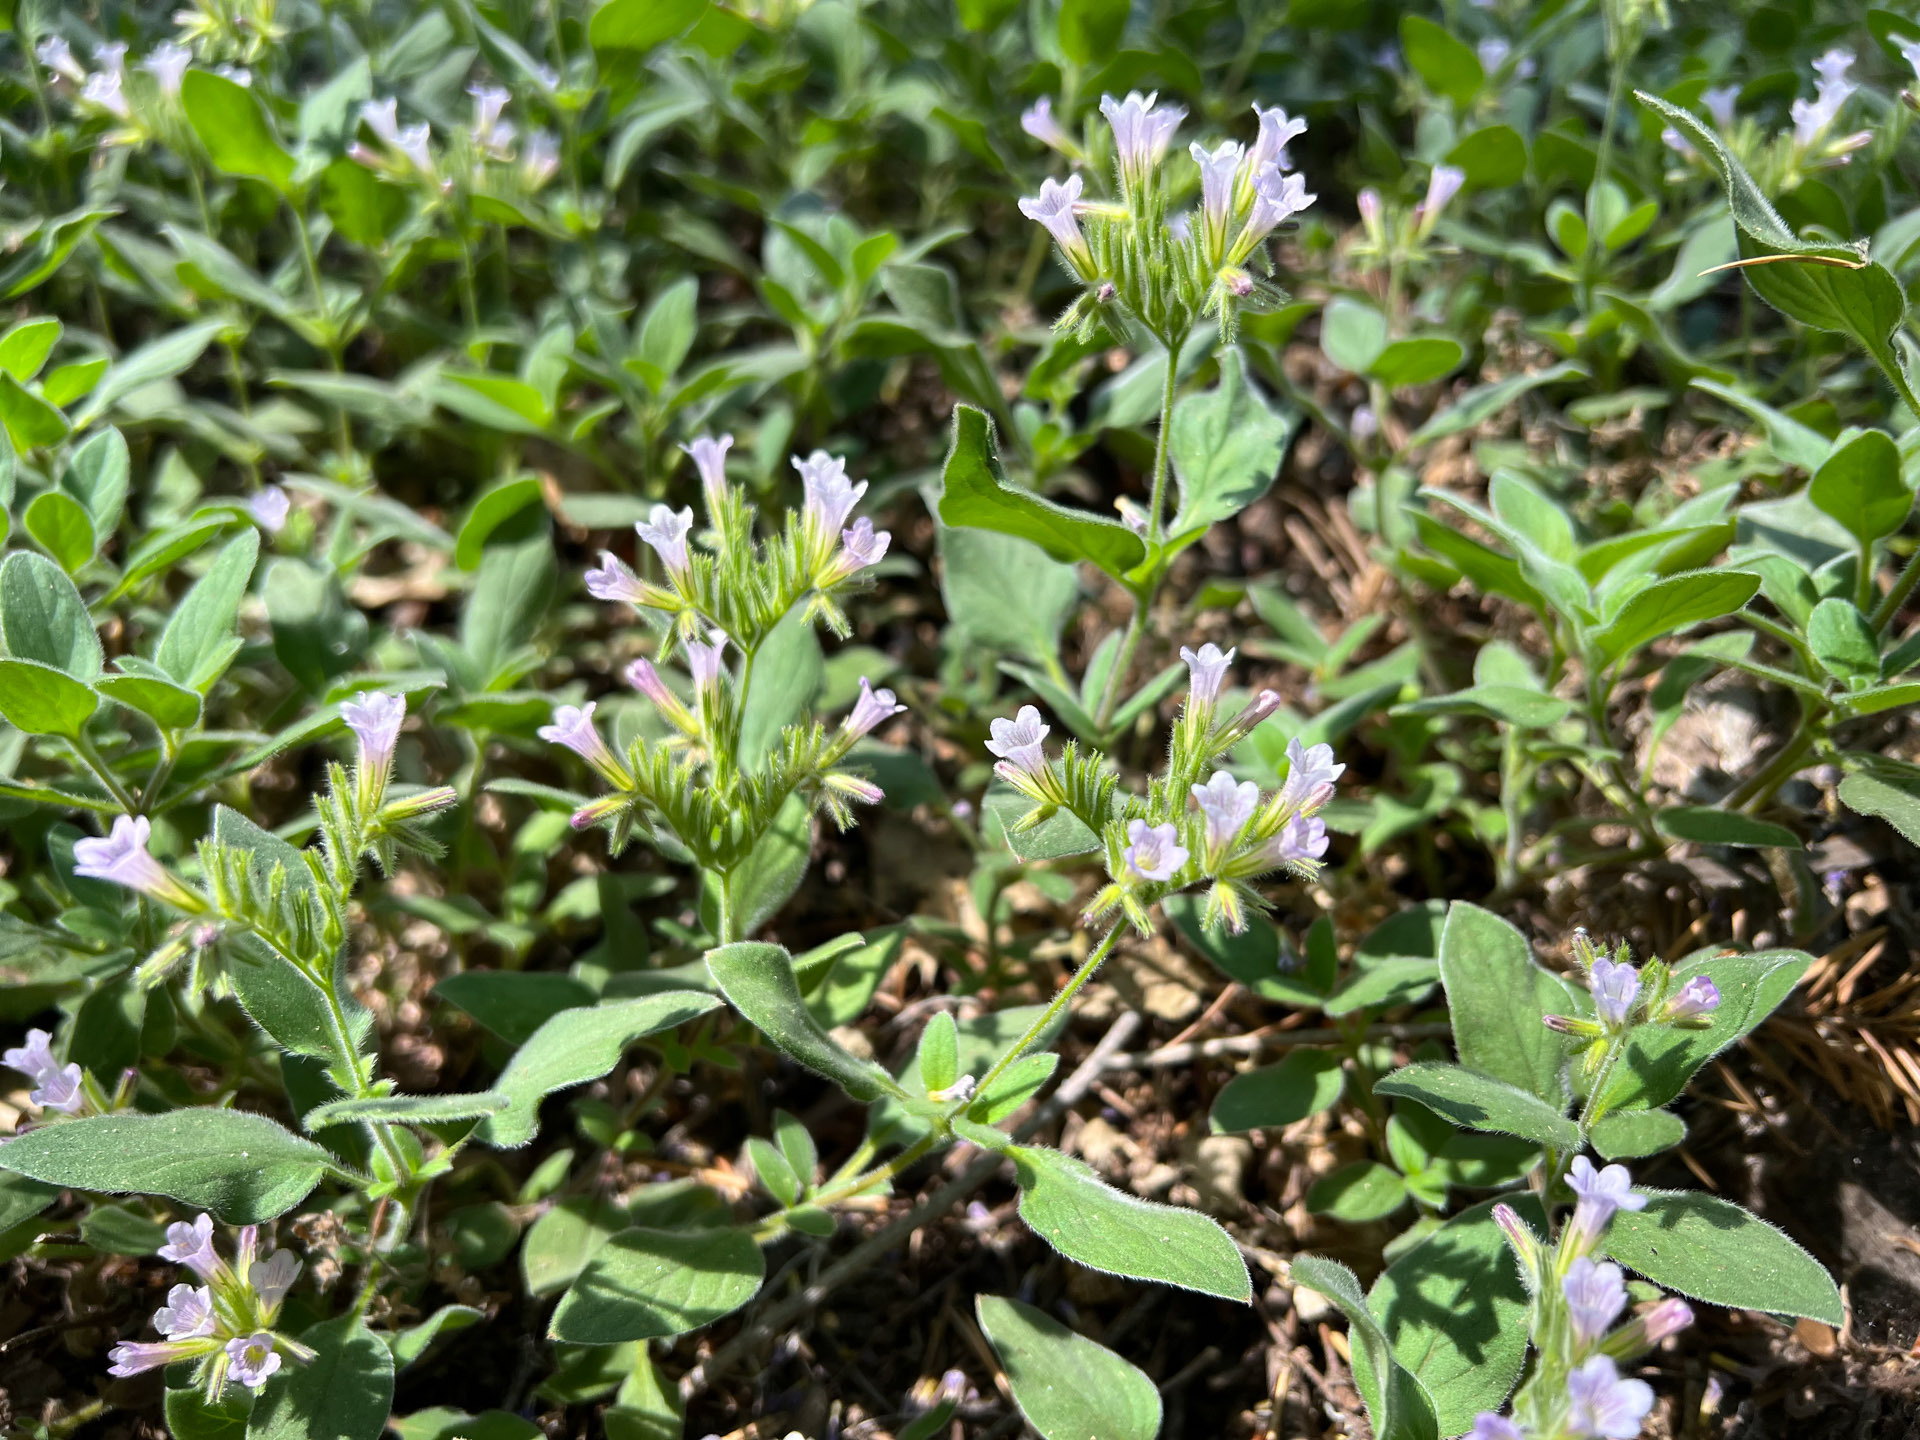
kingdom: Plantae
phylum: Tracheophyta
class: Magnoliopsida
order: Boraginales
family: Hydrophyllaceae
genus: Draperia
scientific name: Draperia systyla
